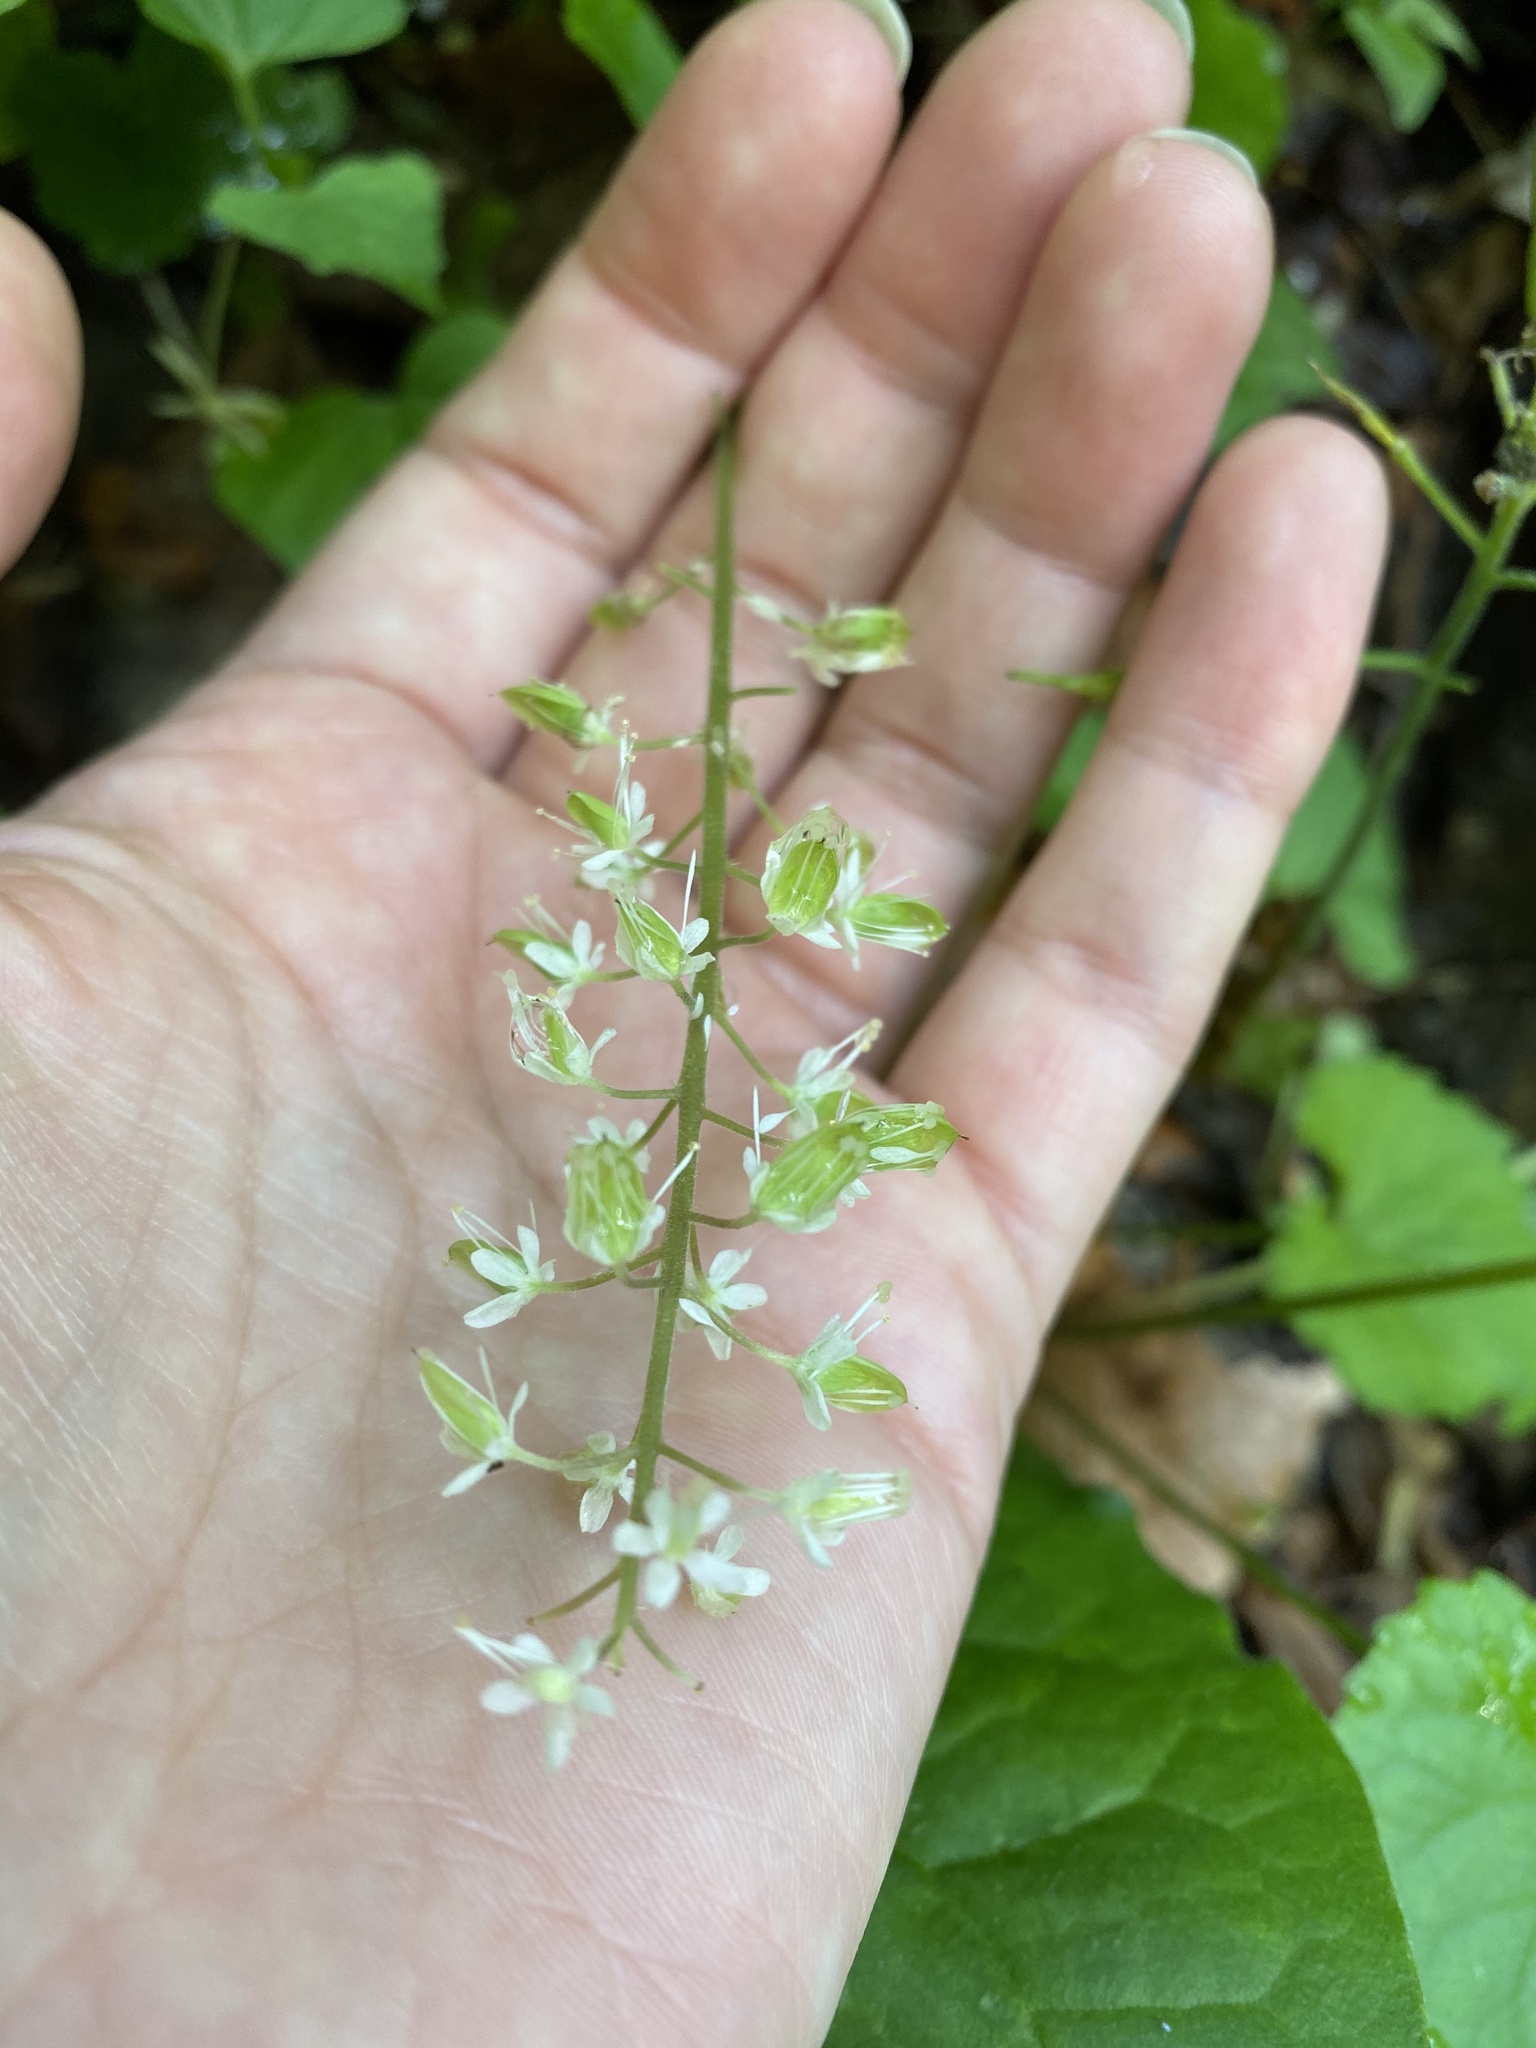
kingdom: Plantae
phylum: Tracheophyta
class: Magnoliopsida
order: Saxifragales
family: Saxifragaceae
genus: Tiarella
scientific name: Tiarella stolonifera
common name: Stoloniferous foamflower
